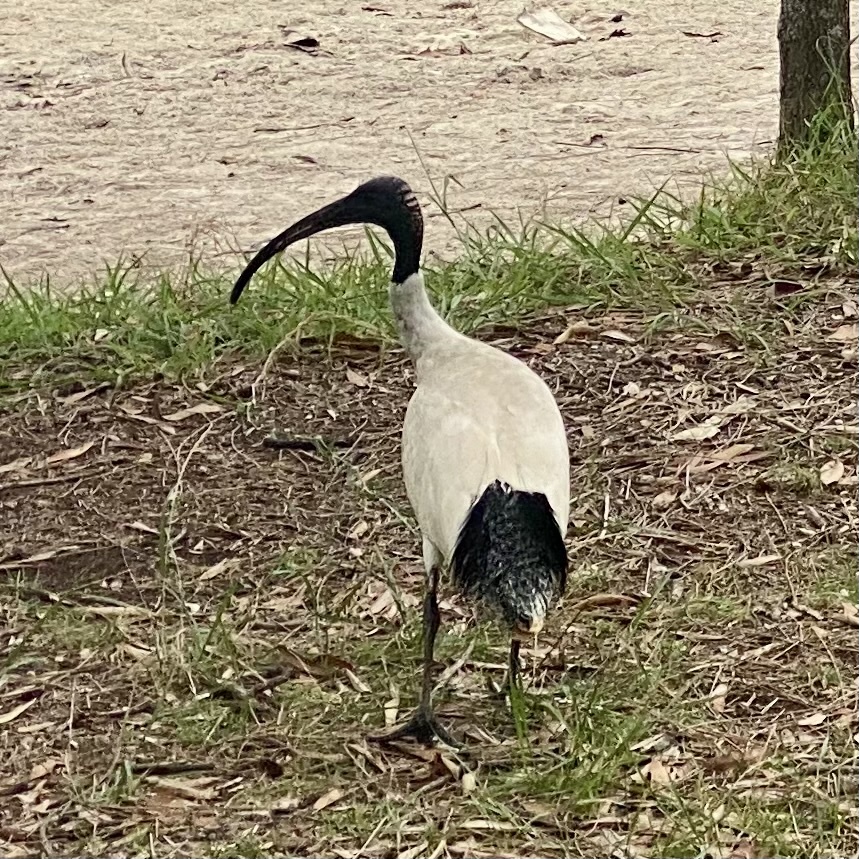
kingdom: Animalia
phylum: Chordata
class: Aves
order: Pelecaniformes
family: Threskiornithidae
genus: Threskiornis
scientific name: Threskiornis molucca
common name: Australian white ibis
